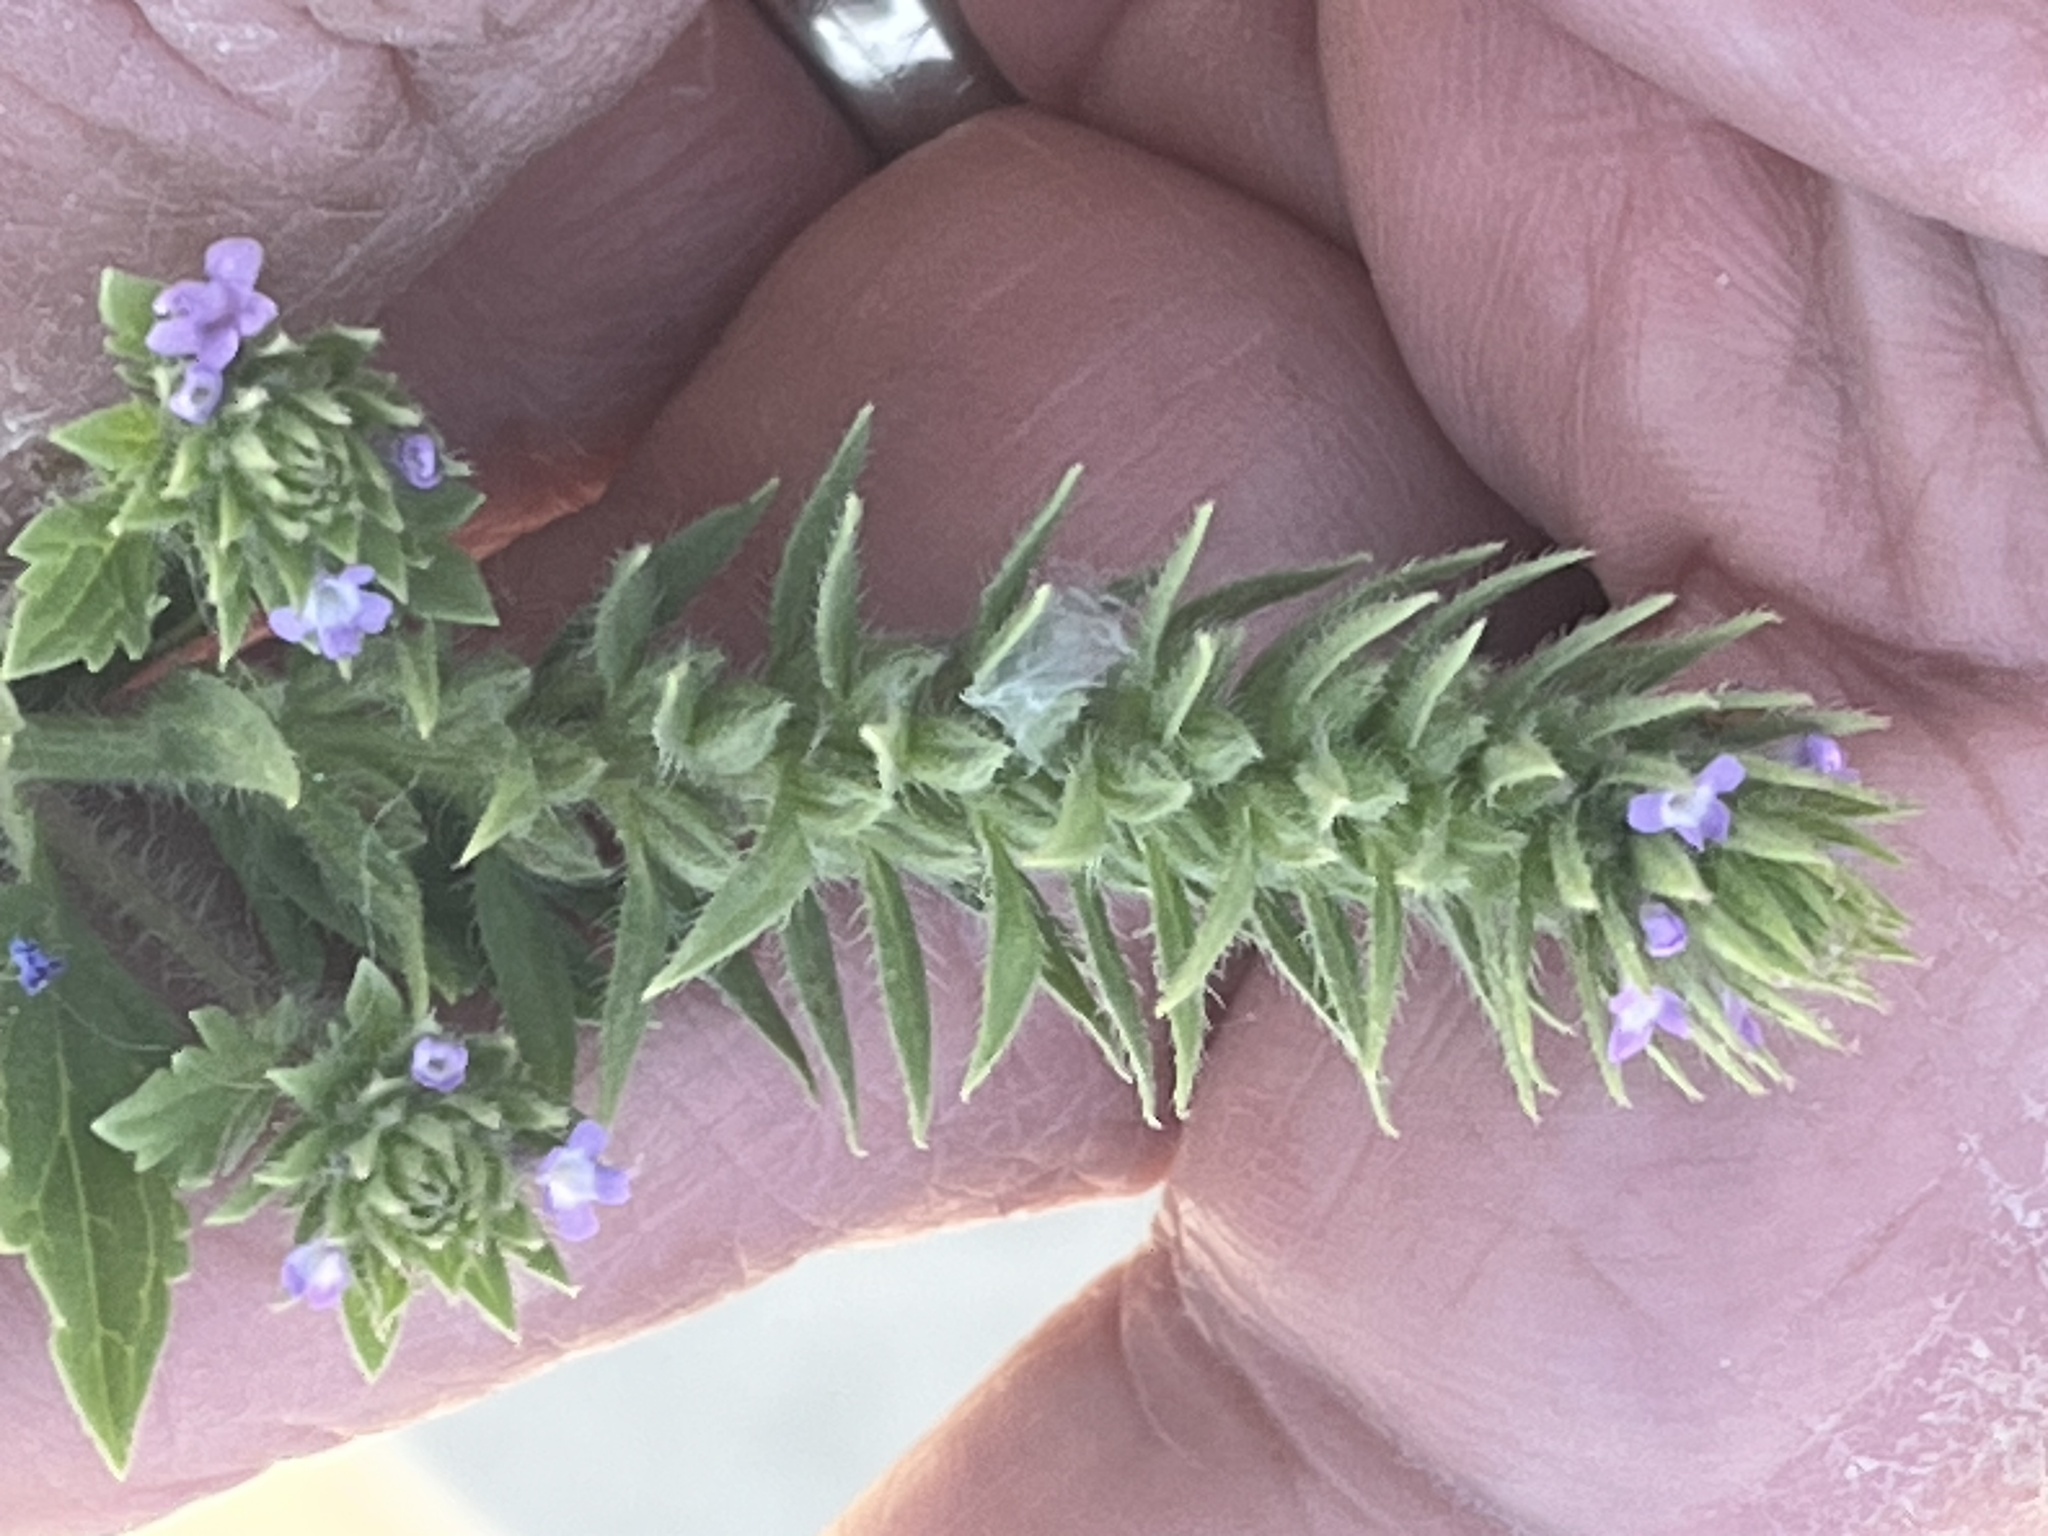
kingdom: Plantae
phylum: Tracheophyta
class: Magnoliopsida
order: Lamiales
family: Verbenaceae
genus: Verbena
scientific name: Verbena bracteata
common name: Bracted vervain
